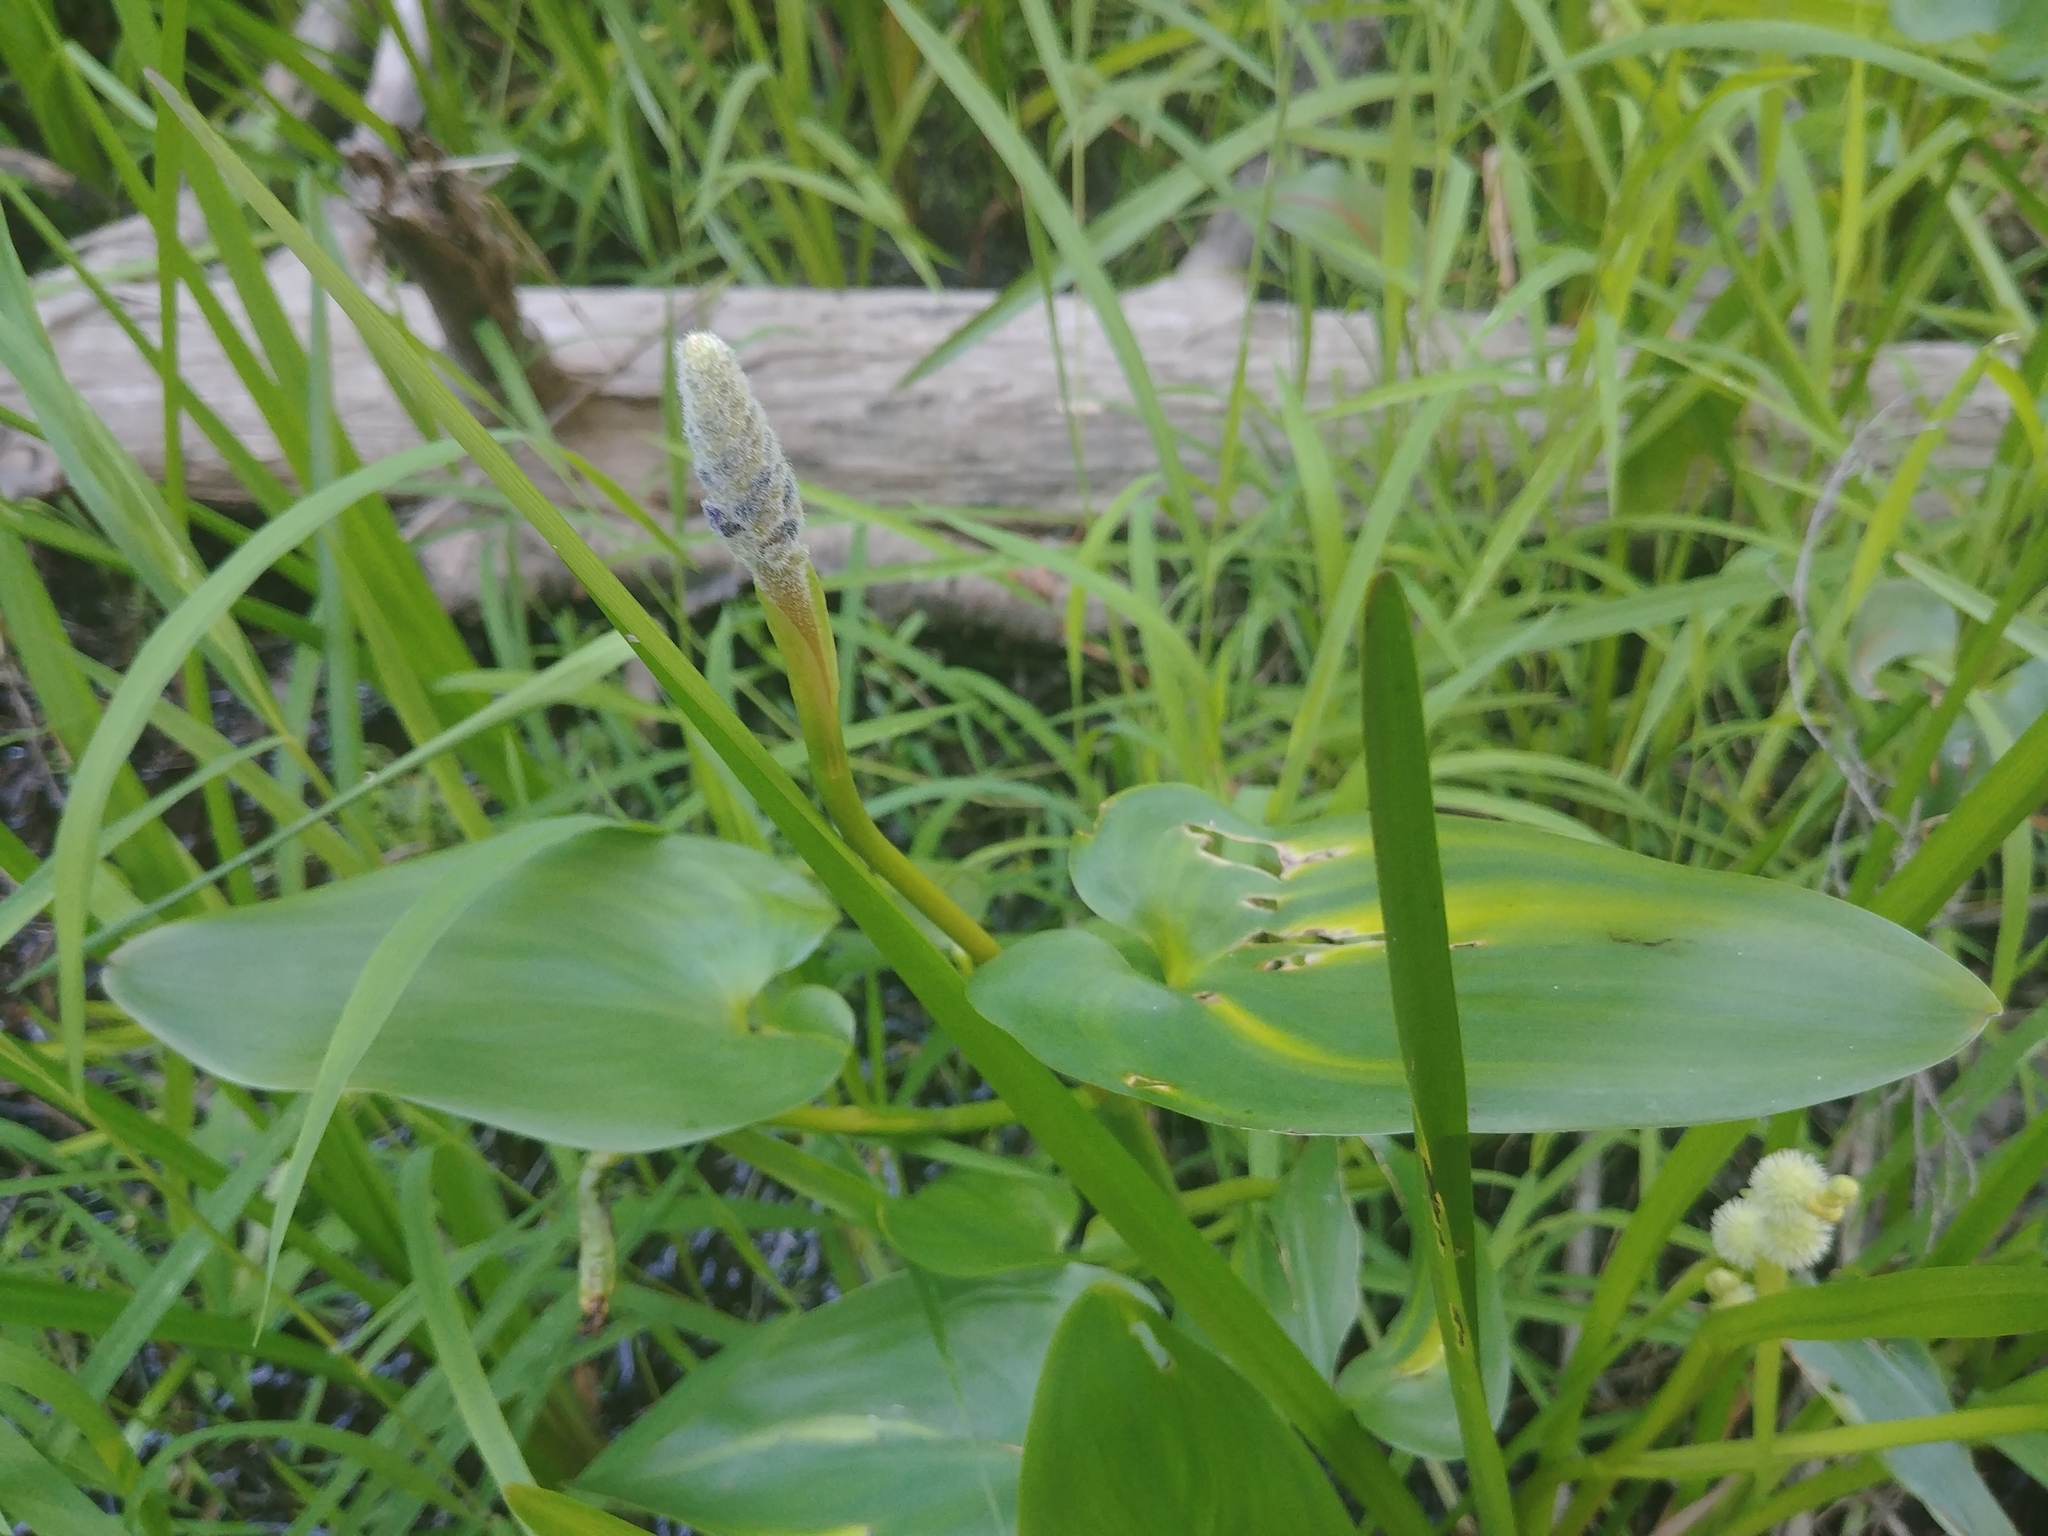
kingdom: Plantae
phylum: Tracheophyta
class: Liliopsida
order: Commelinales
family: Pontederiaceae
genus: Pontederia
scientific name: Pontederia cordata
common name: Pickerelweed
